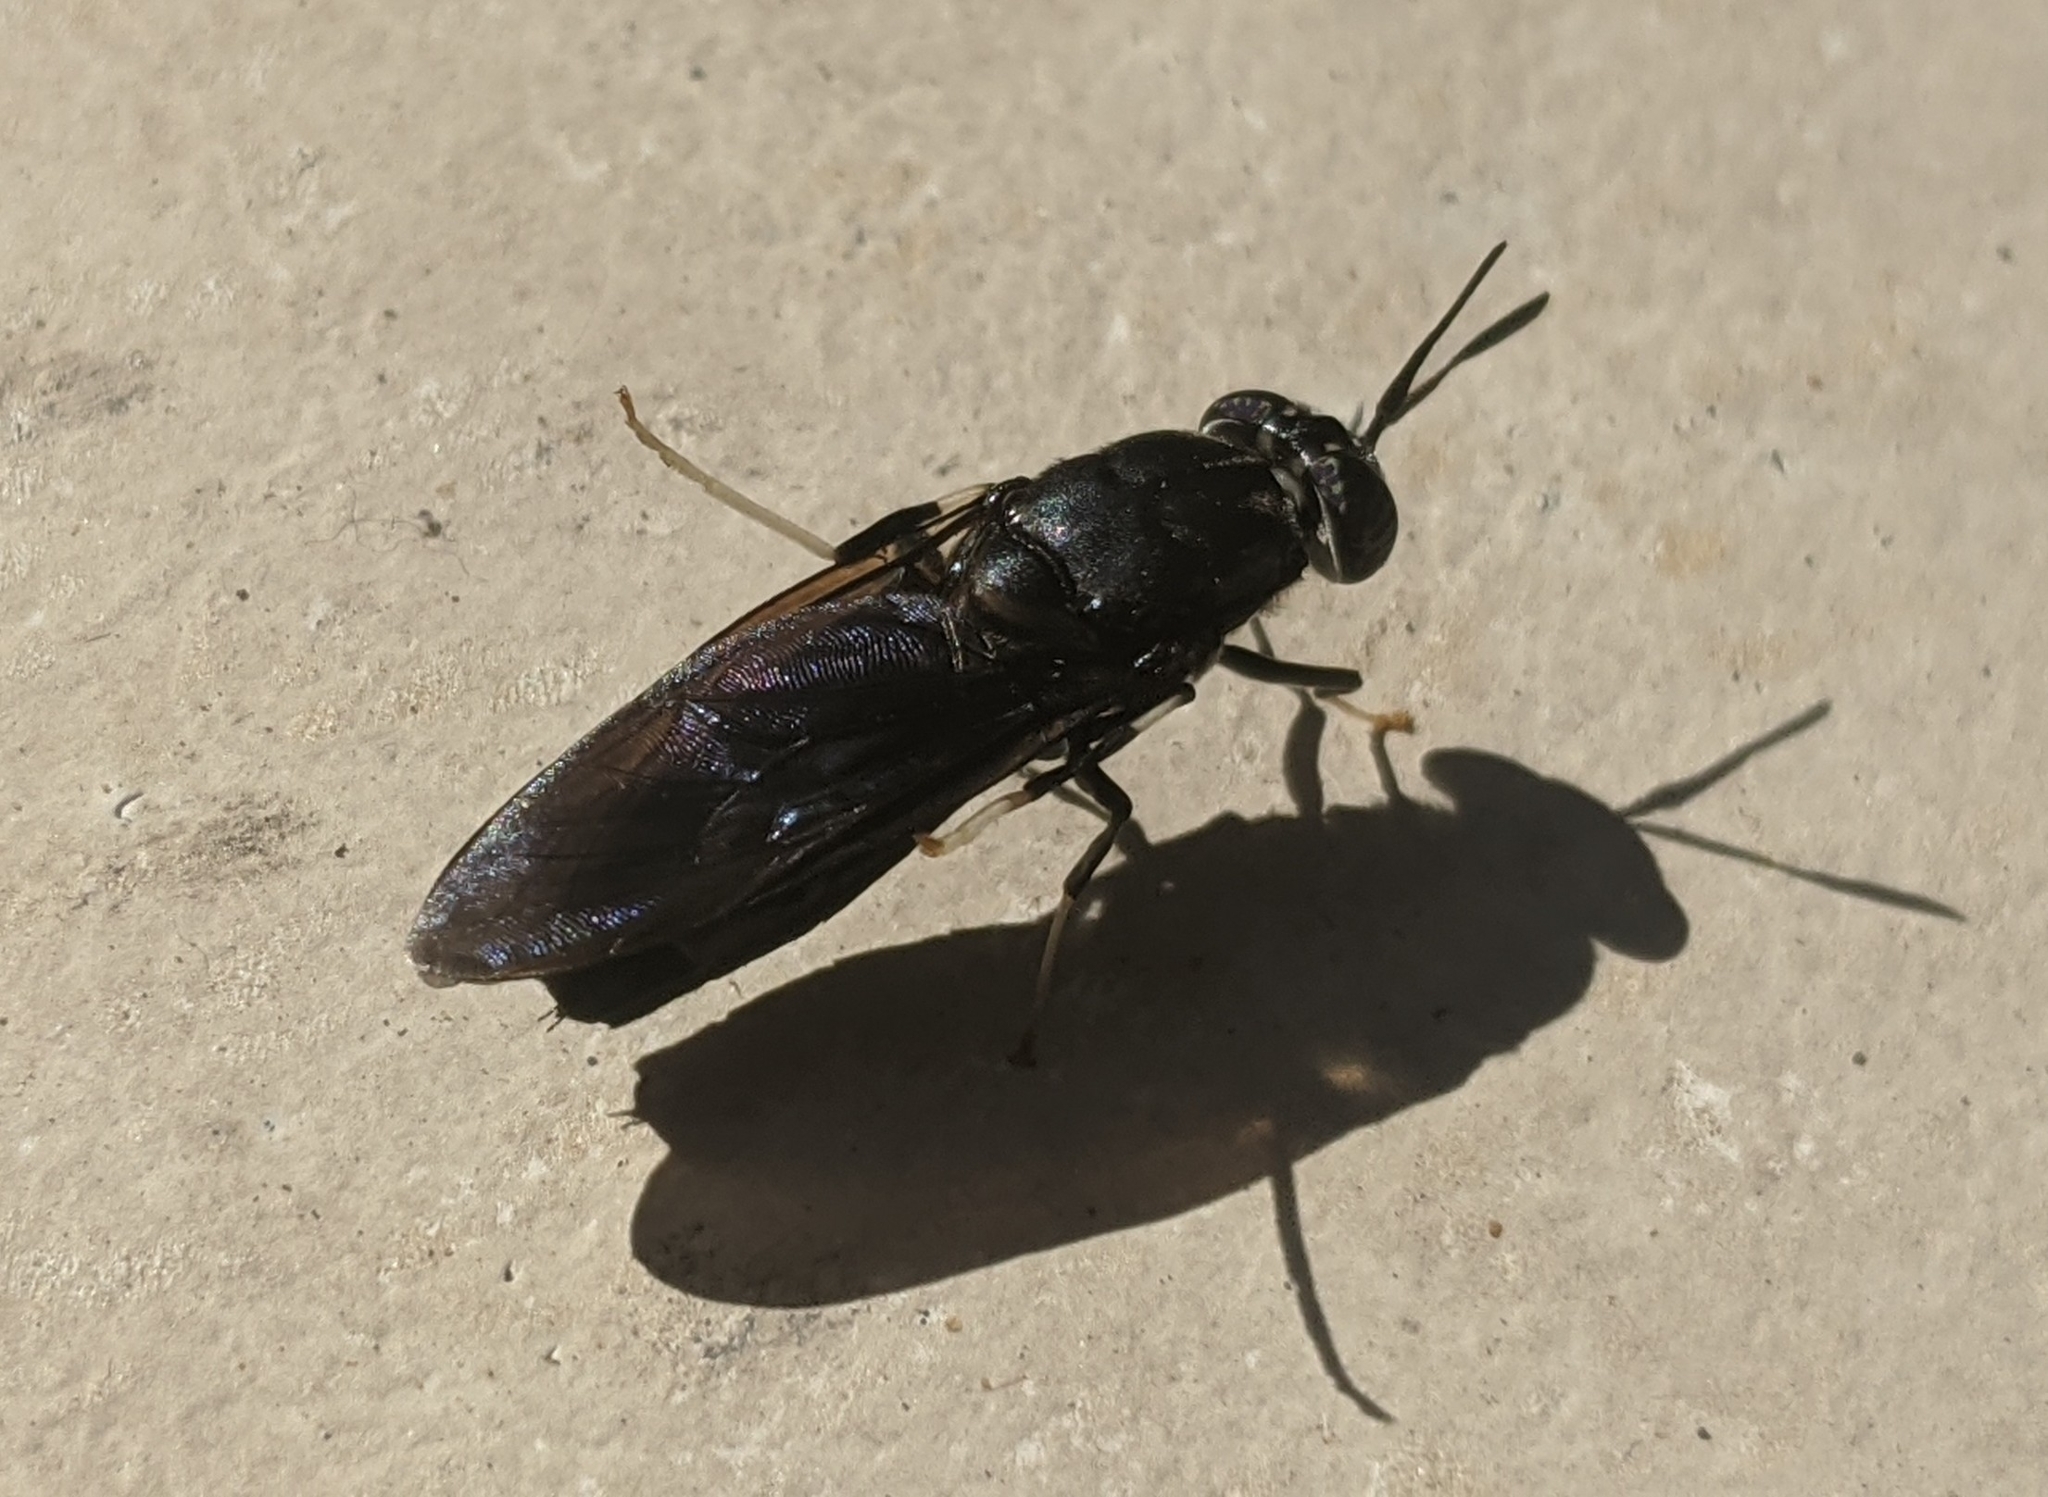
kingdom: Animalia
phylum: Arthropoda
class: Insecta
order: Diptera
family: Stratiomyidae
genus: Hermetia
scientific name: Hermetia illucens
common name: Black soldier fly
